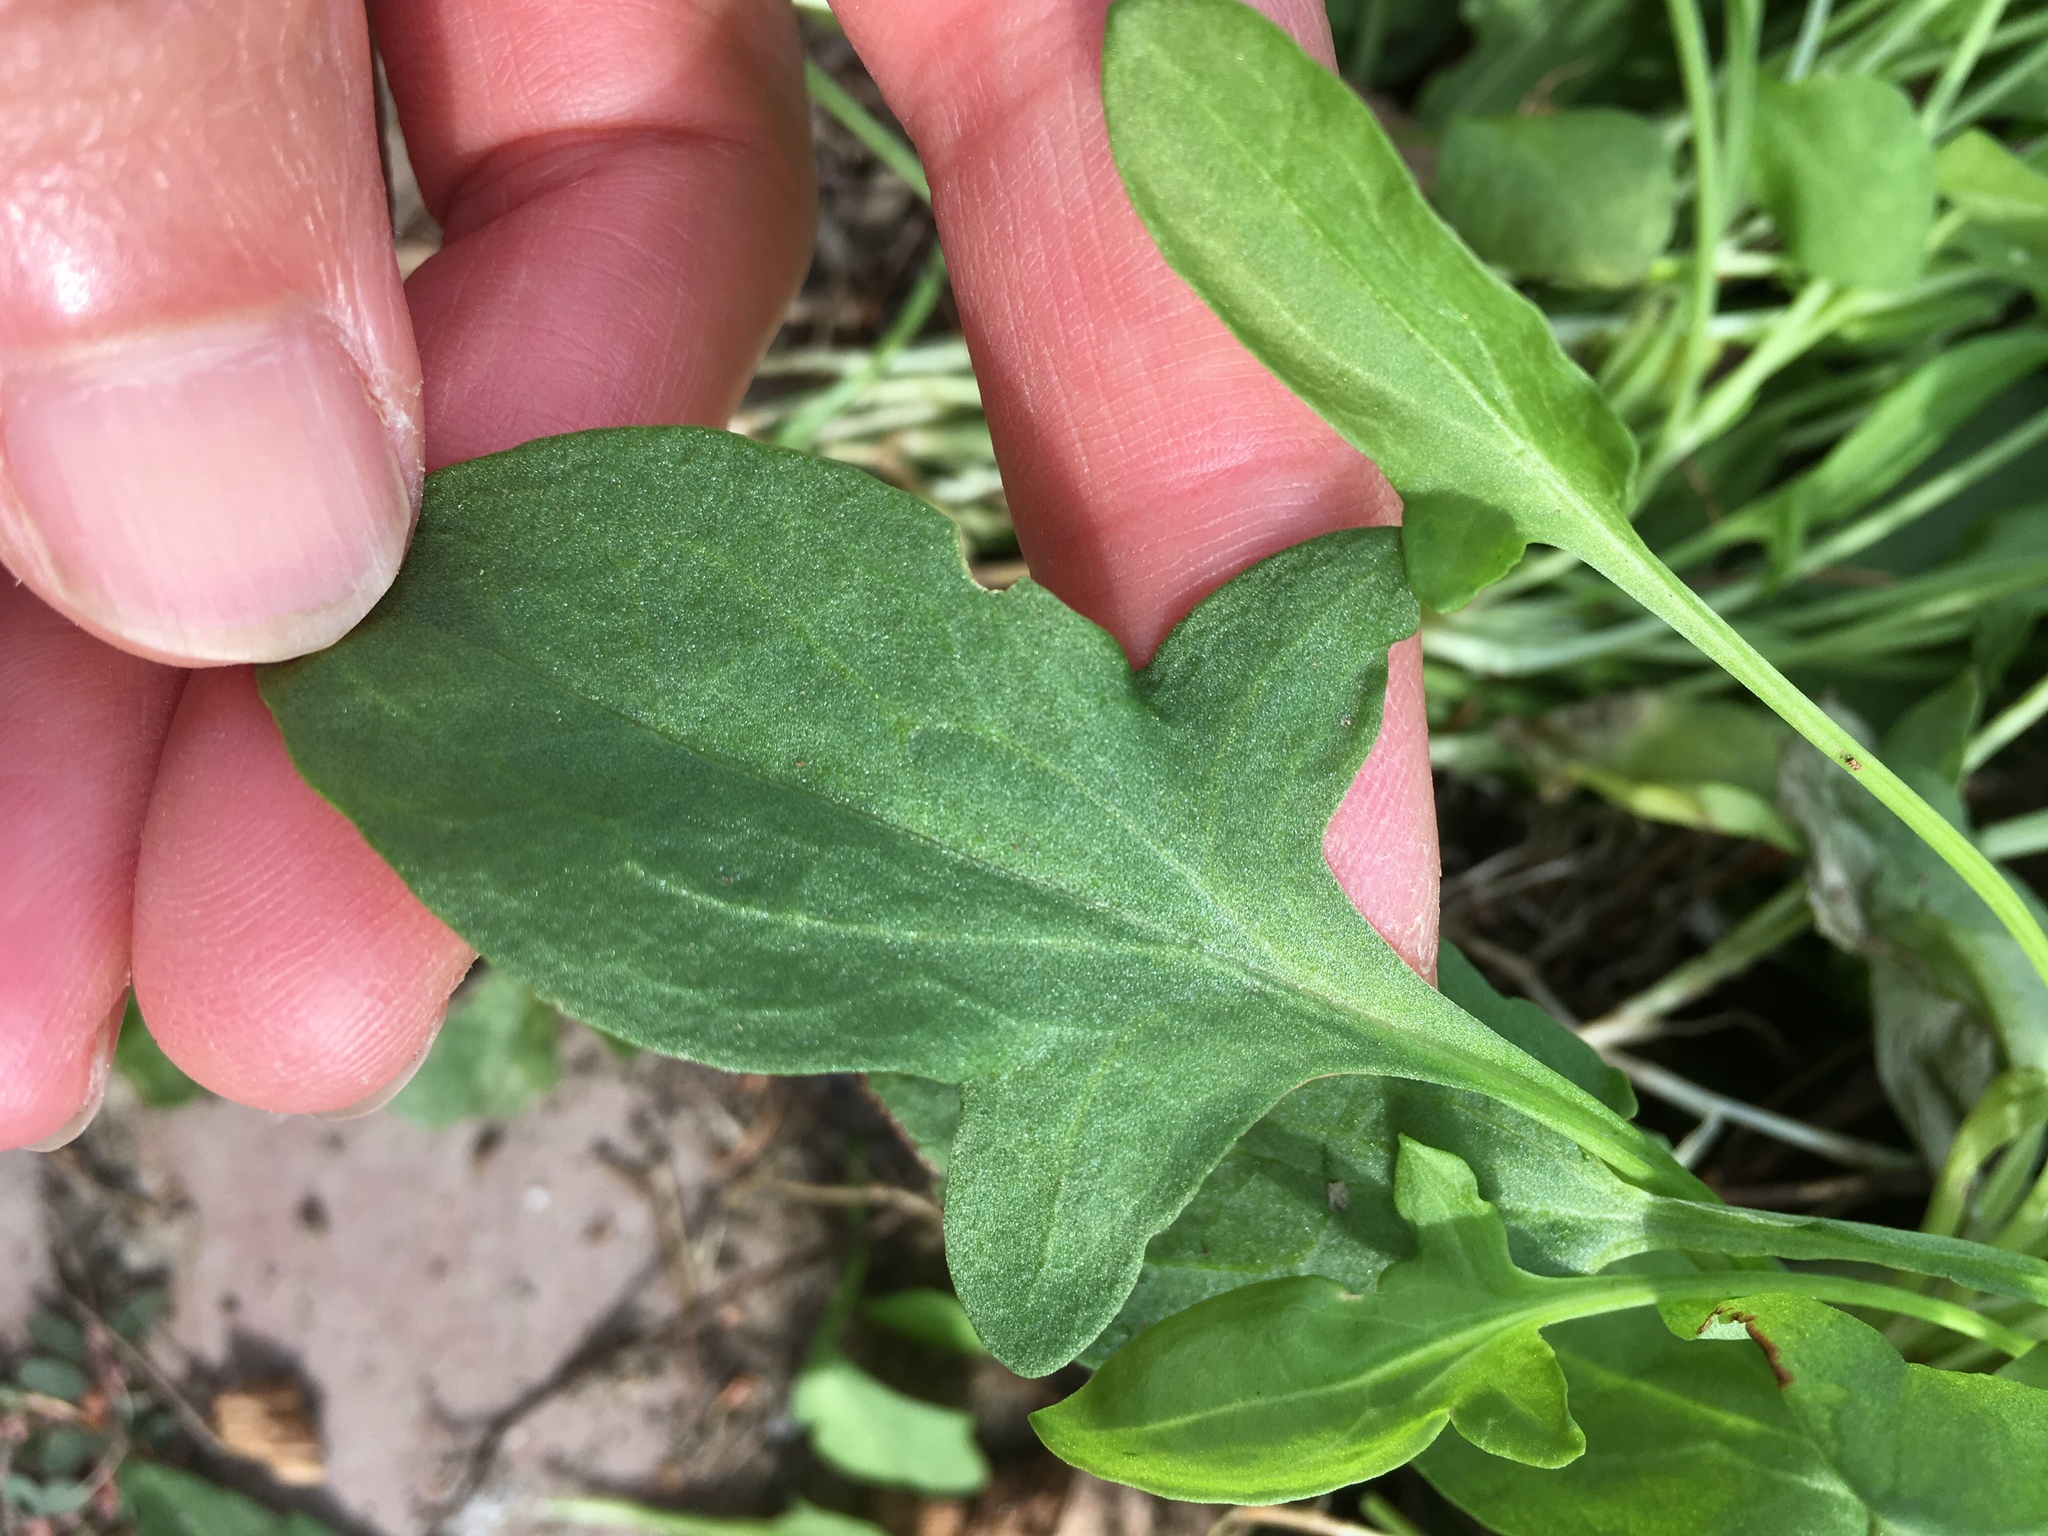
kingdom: Plantae
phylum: Tracheophyta
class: Magnoliopsida
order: Caryophyllales
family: Polygonaceae
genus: Rumex
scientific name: Rumex acetosella
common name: Common sheep sorrel
